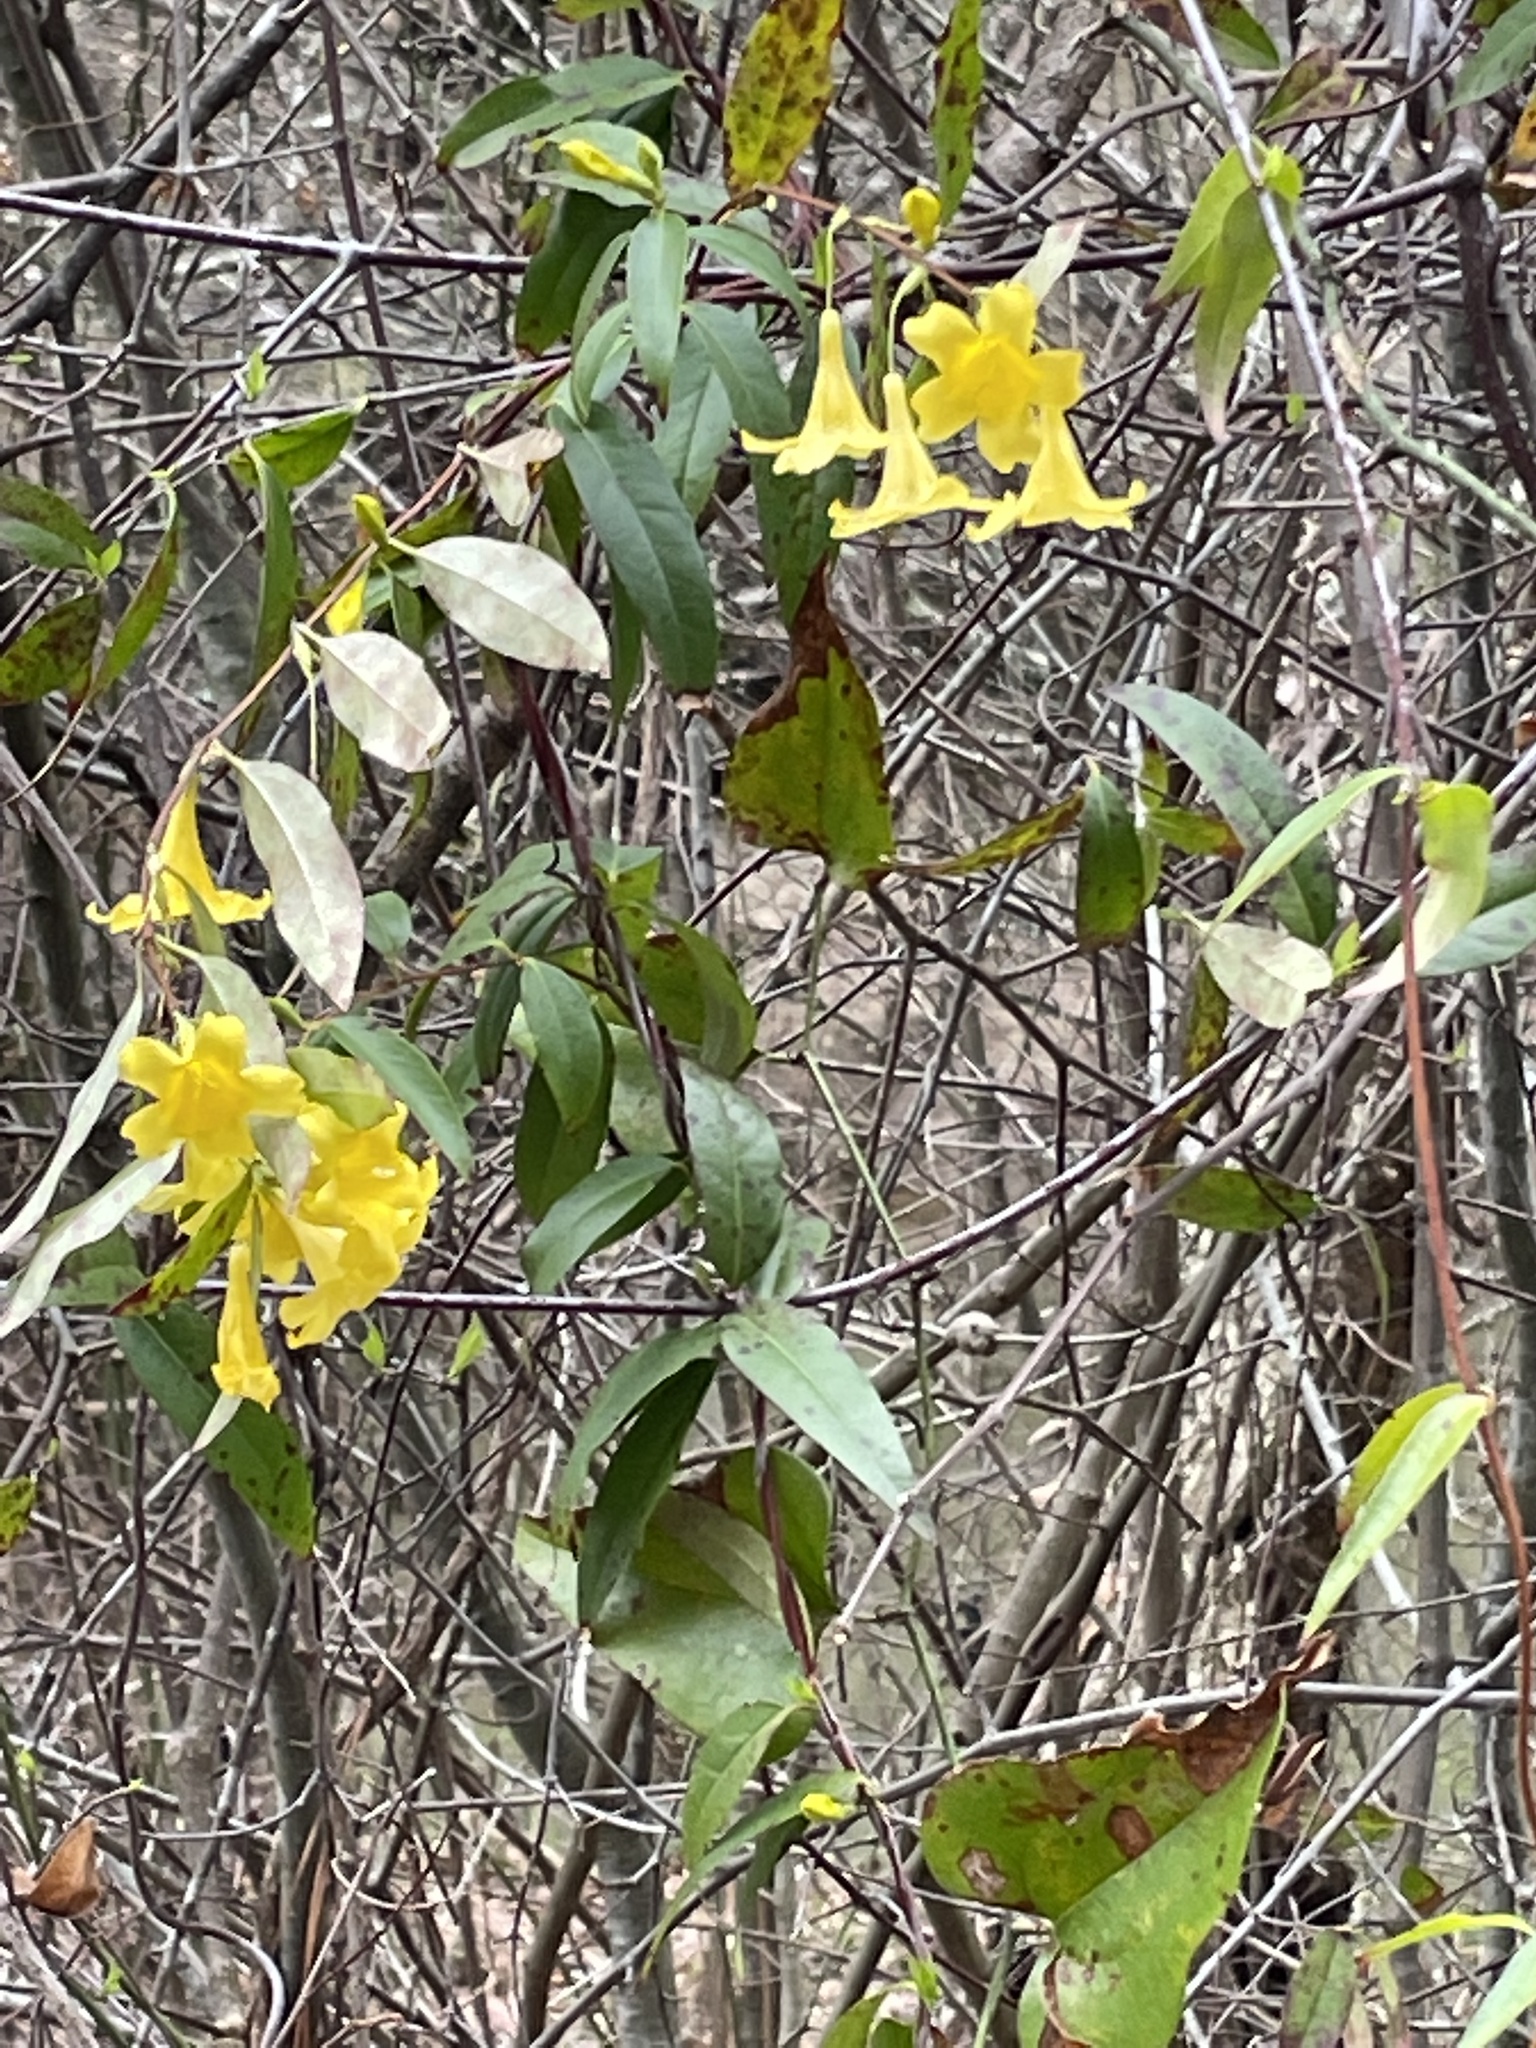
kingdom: Plantae
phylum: Tracheophyta
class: Magnoliopsida
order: Gentianales
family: Gelsemiaceae
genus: Gelsemium
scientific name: Gelsemium sempervirens
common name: Carolina-jasmine
